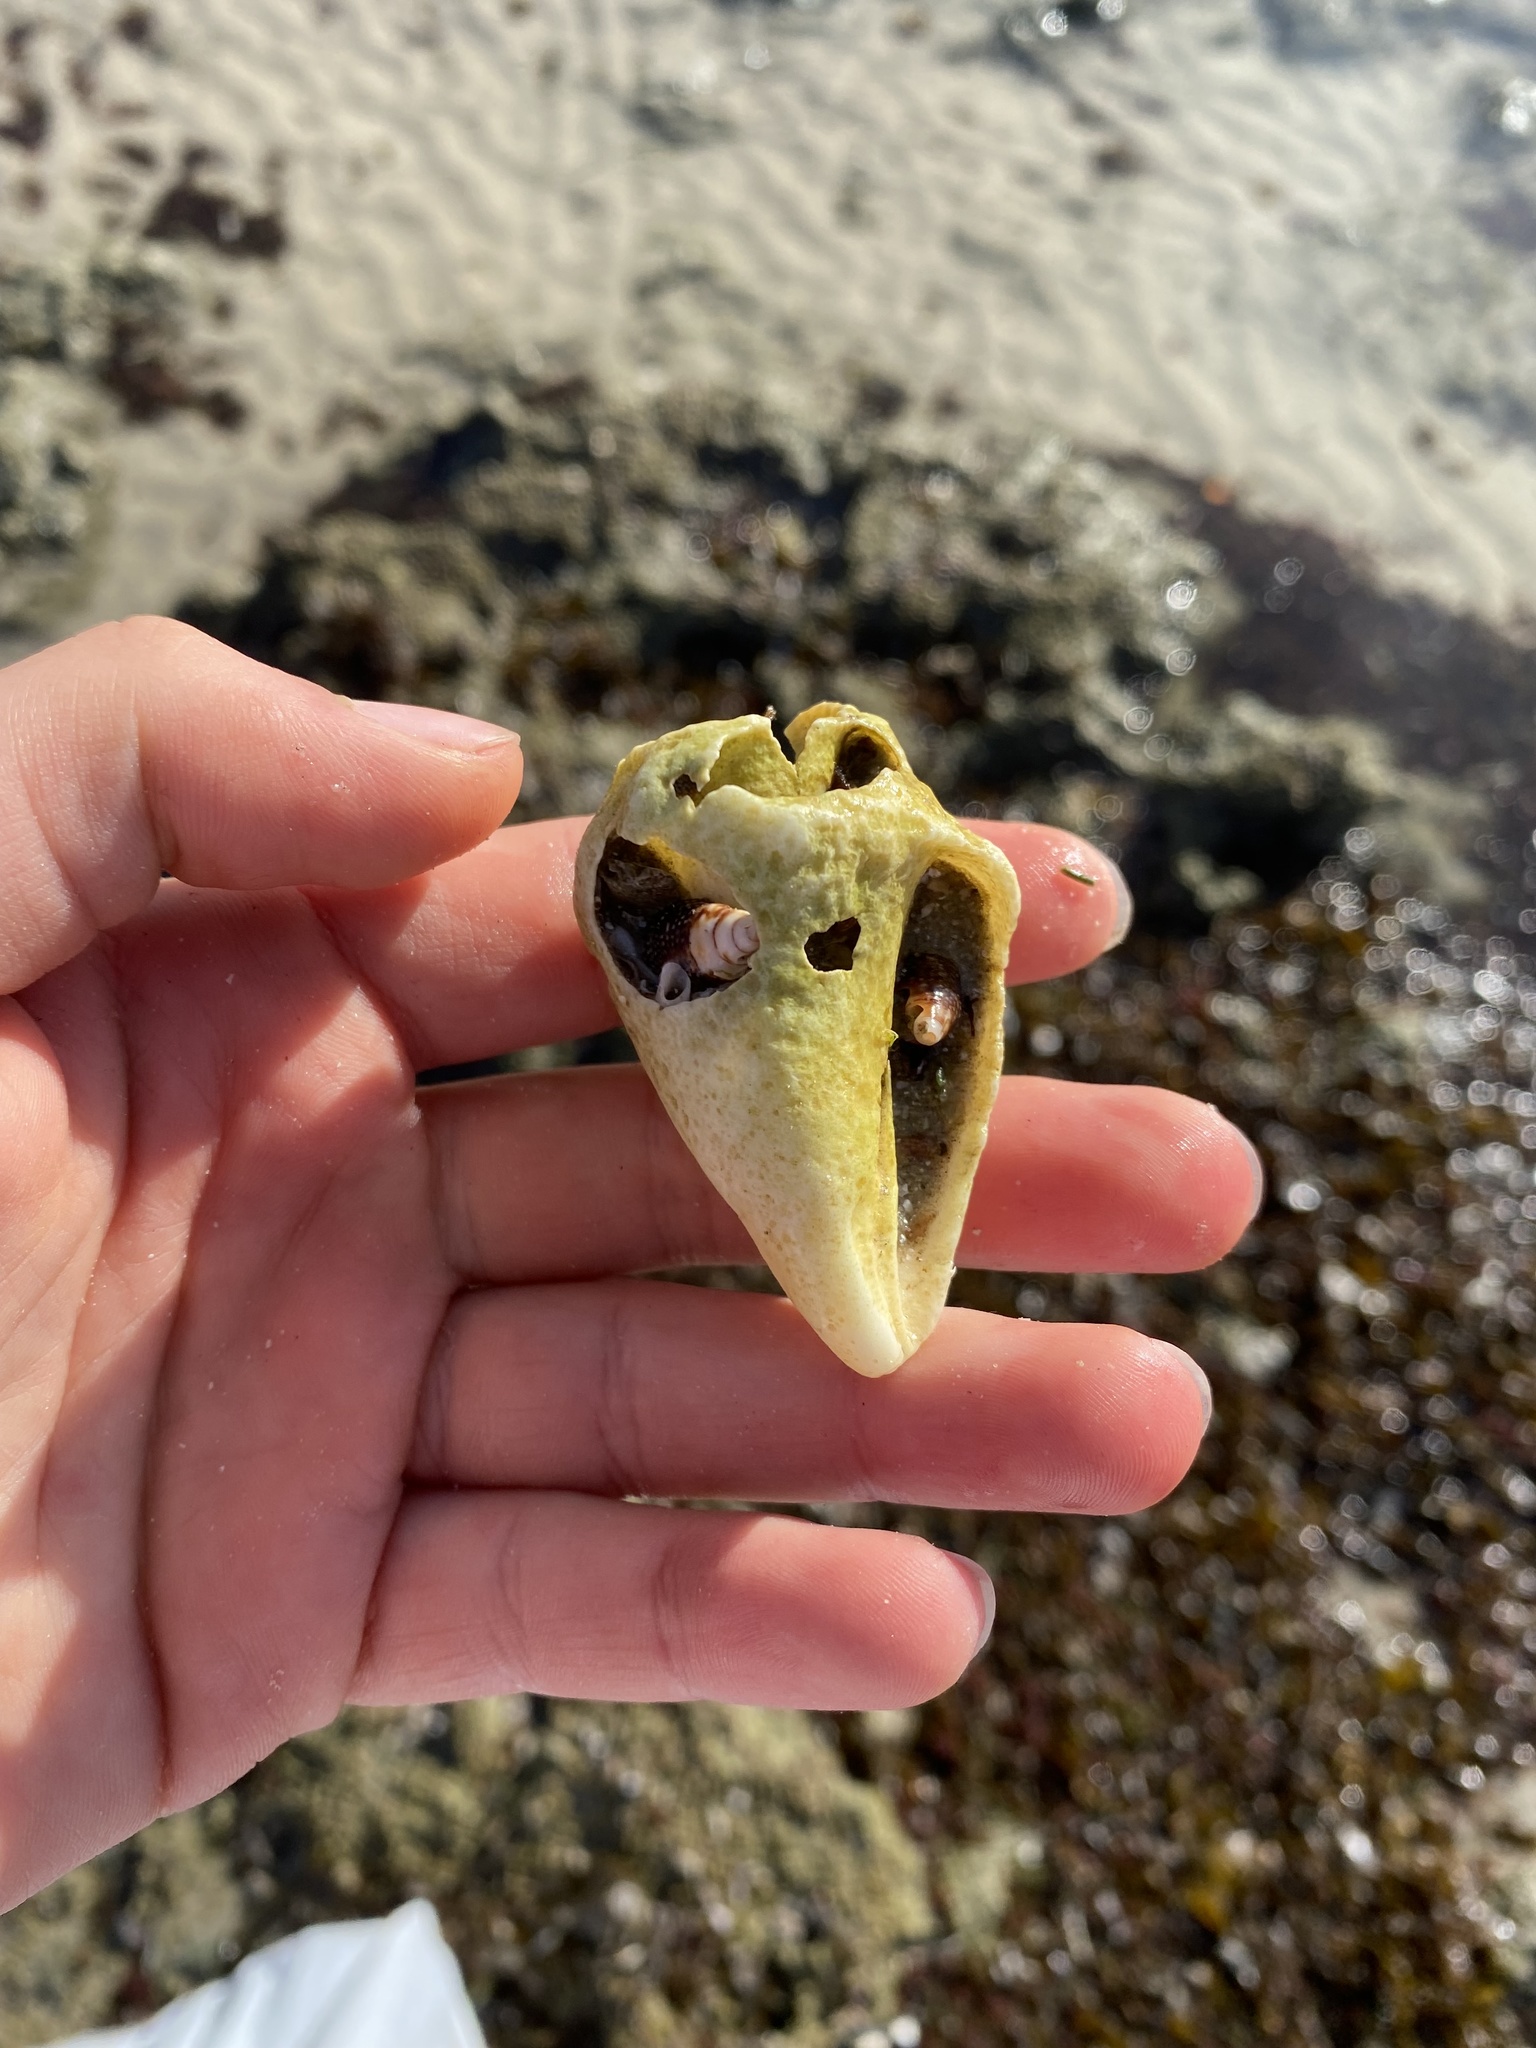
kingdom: Animalia
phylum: Mollusca
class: Gastropoda
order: Littorinimorpha
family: Strombidae
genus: Strombus
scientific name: Strombus gracilior
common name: Eastern pacific fighting conch
